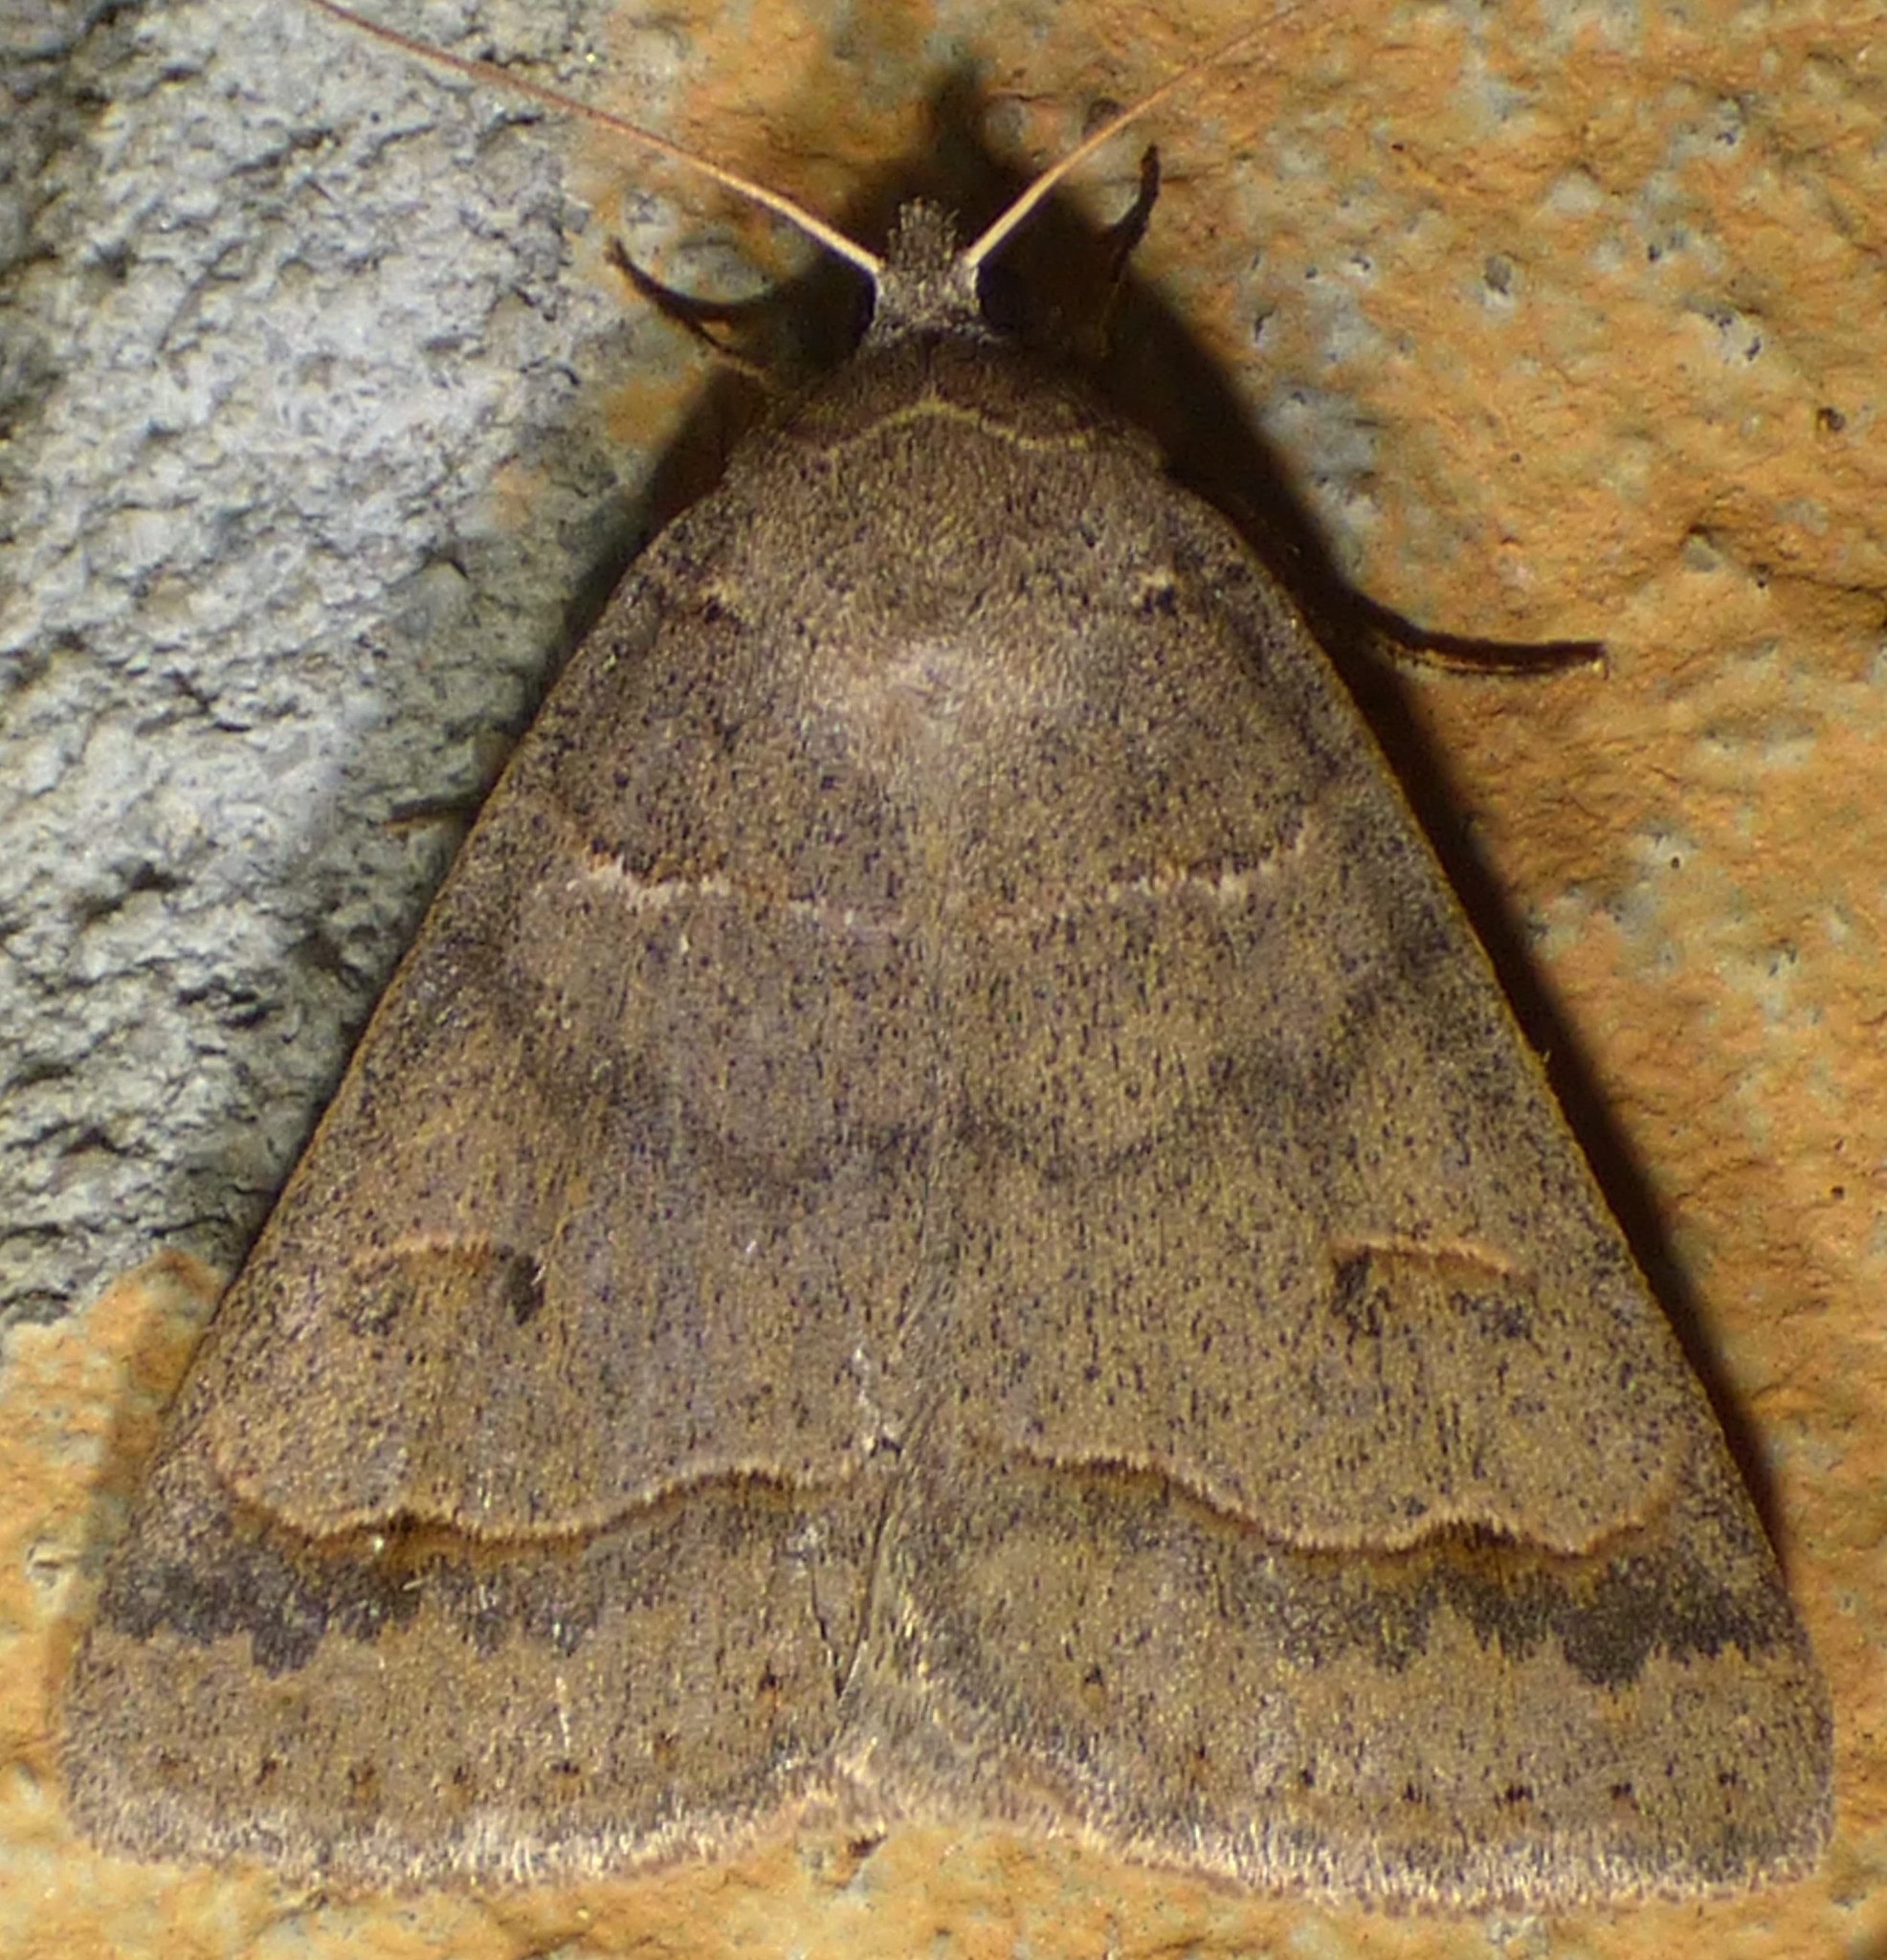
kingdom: Animalia
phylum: Arthropoda
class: Insecta
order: Lepidoptera
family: Erebidae
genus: Phoberia
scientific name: Phoberia atomaris
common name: Common oak moth
